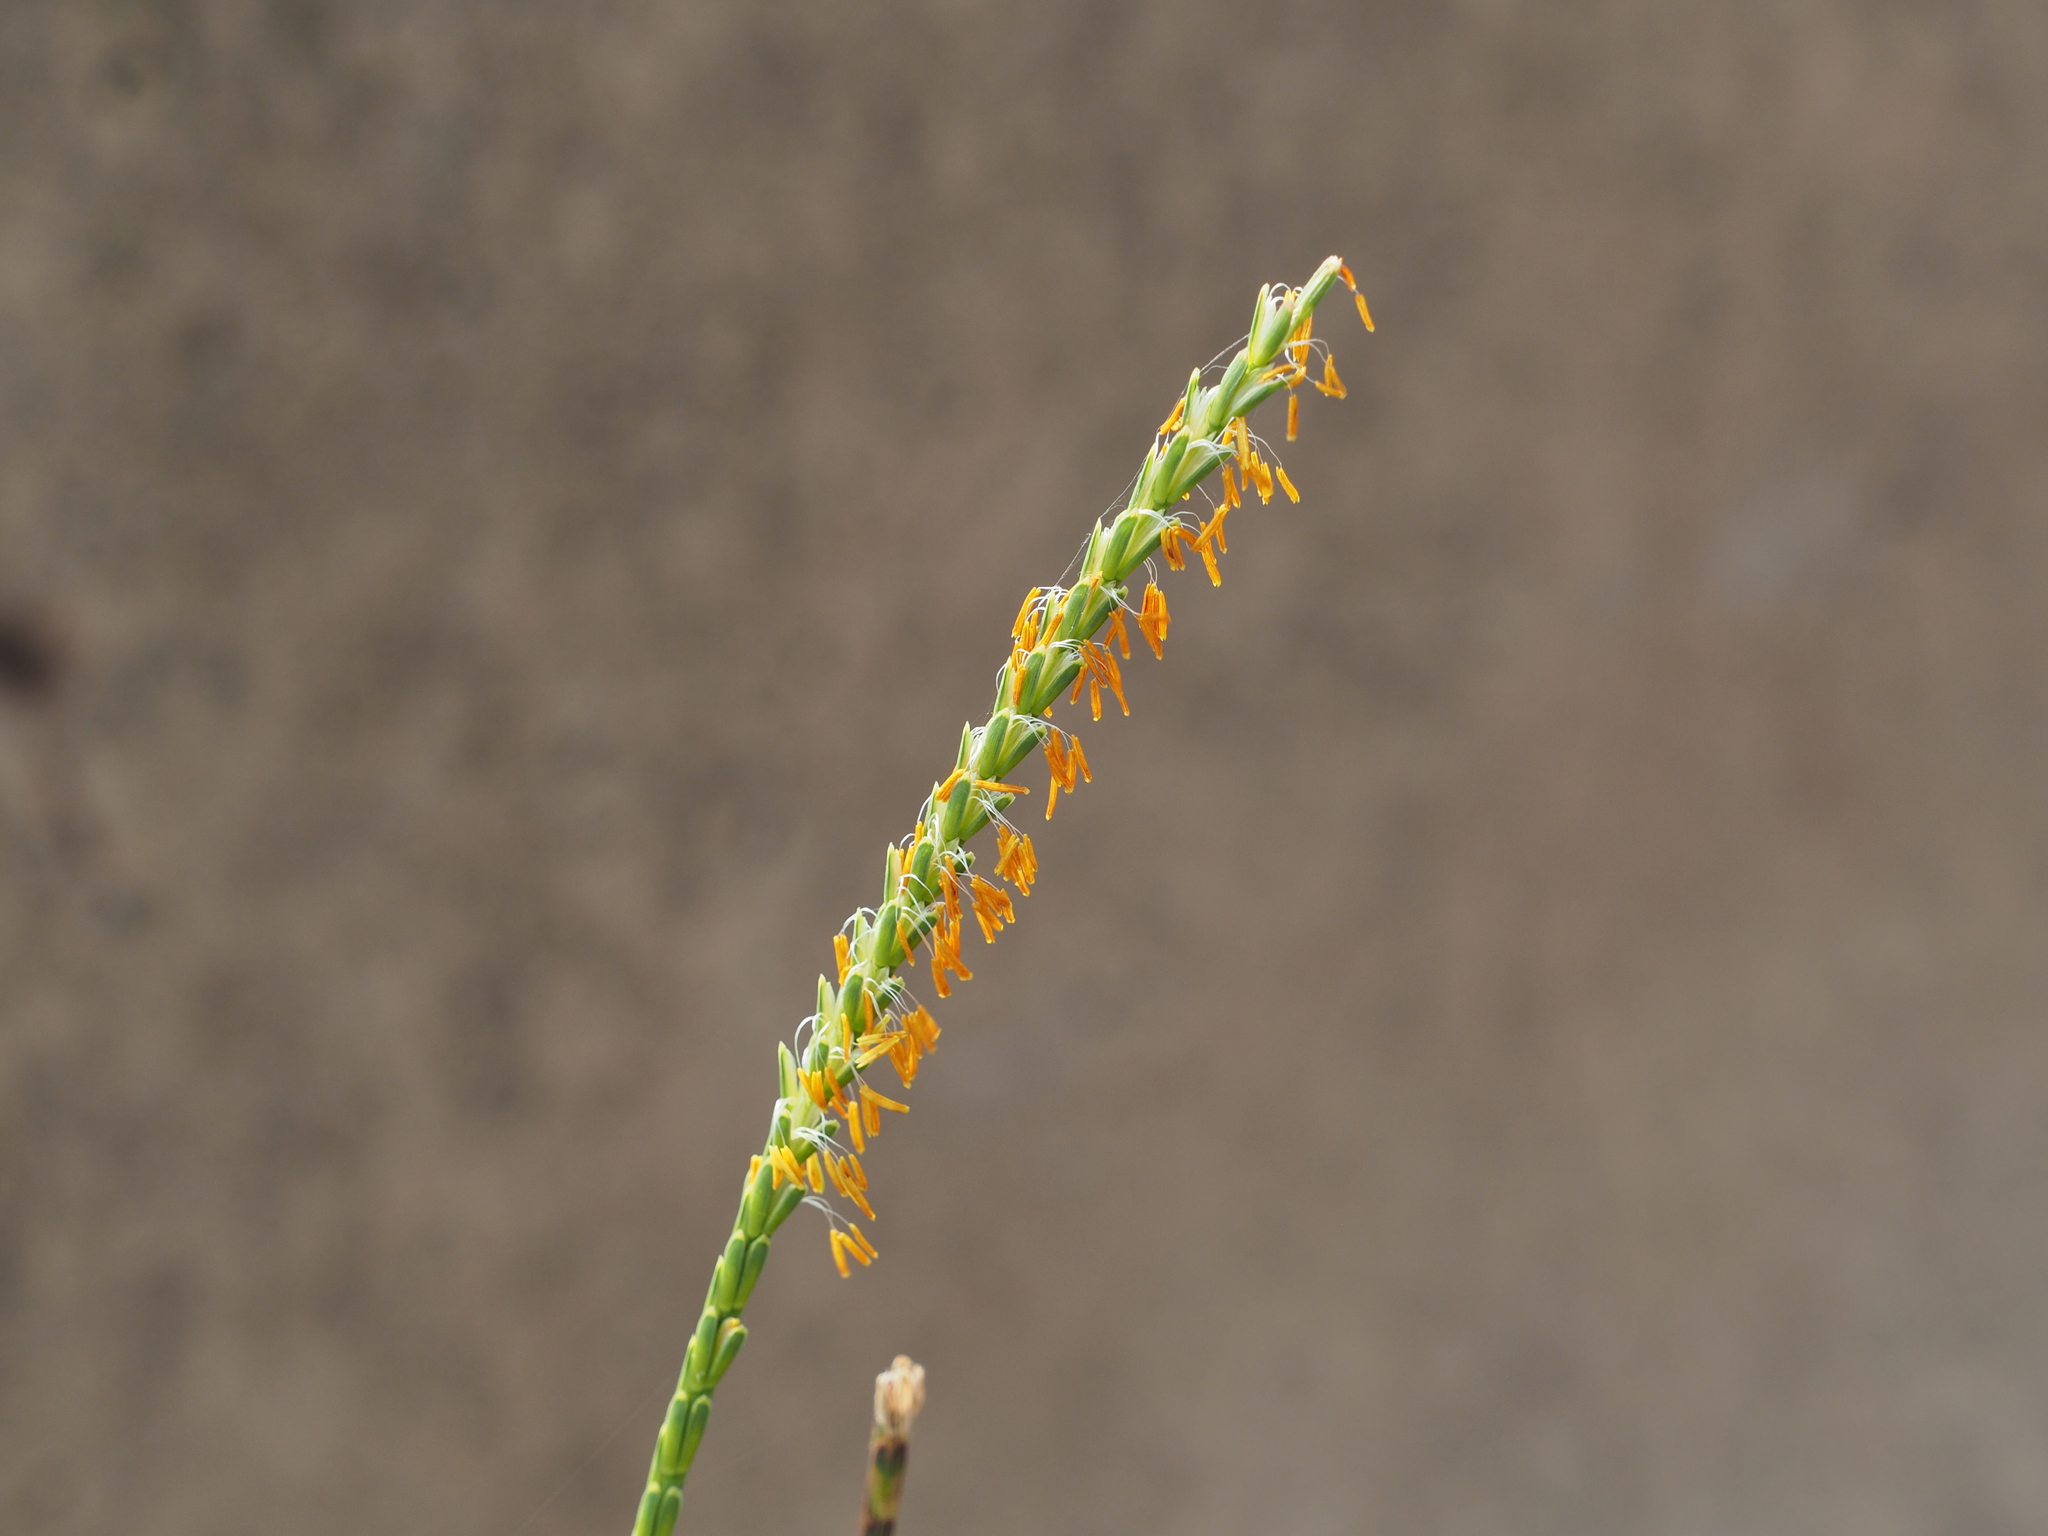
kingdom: Plantae
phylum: Tracheophyta
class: Liliopsida
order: Poales
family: Poaceae
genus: Tripsacum
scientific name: Tripsacum dactyloides
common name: Buffalo-grass
